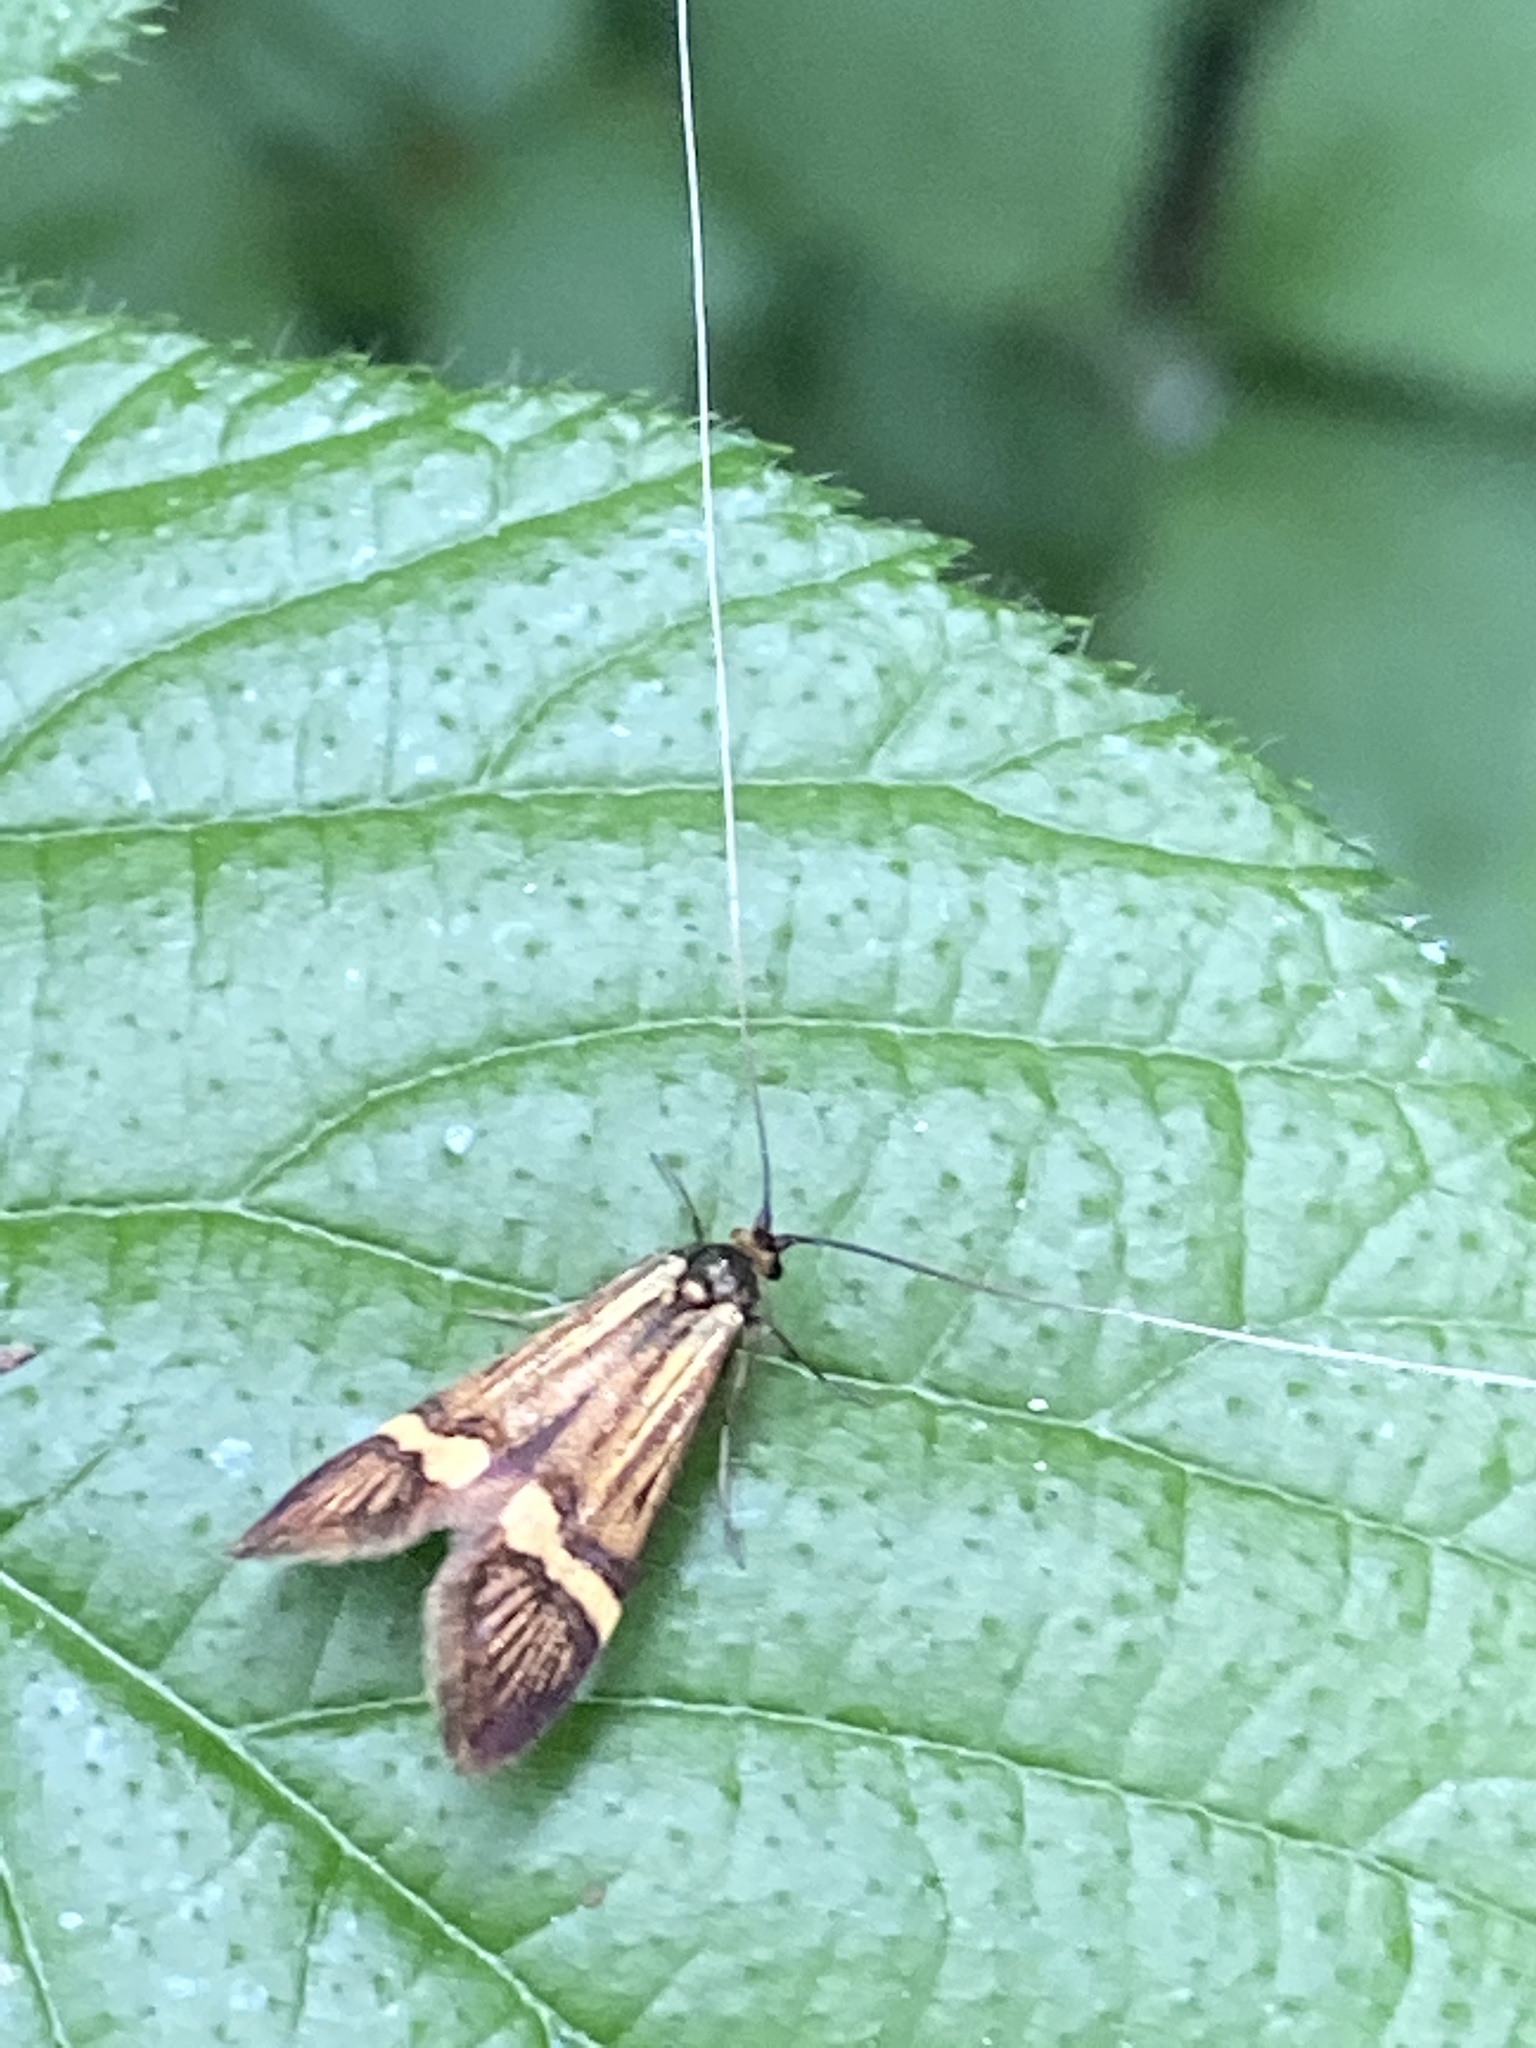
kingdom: Animalia
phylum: Arthropoda
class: Insecta
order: Lepidoptera
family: Adelidae
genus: Nemophora
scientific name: Nemophora degeerella
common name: Yellow-barred long-horn
